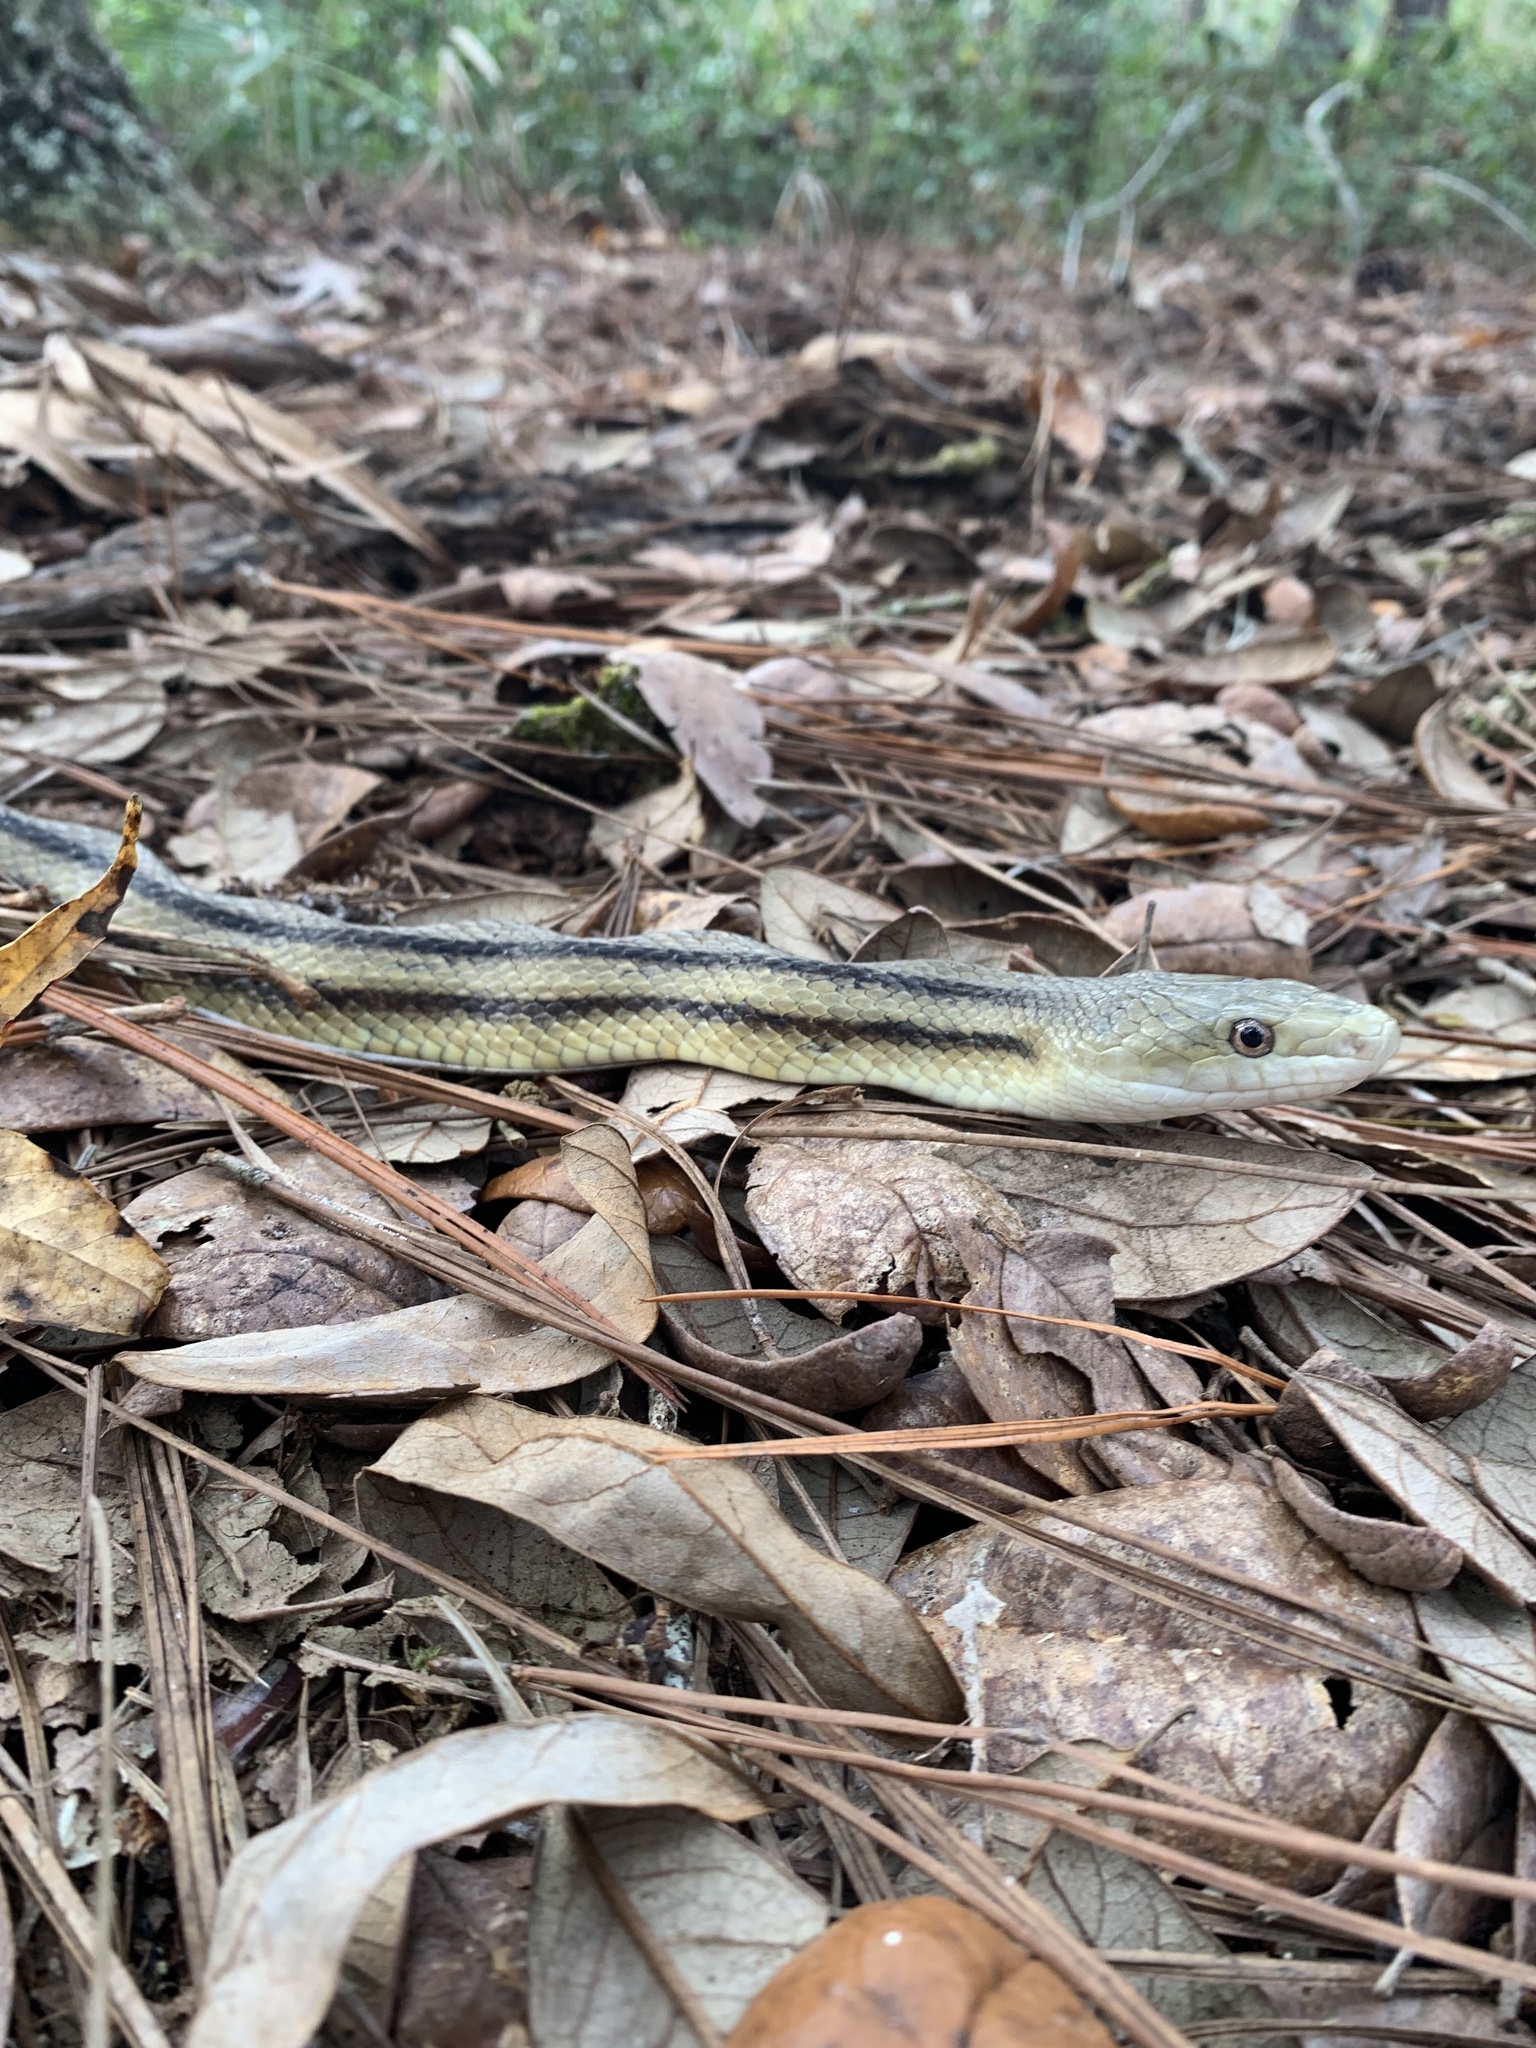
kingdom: Animalia
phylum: Chordata
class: Squamata
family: Colubridae
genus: Pantherophis
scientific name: Pantherophis alleghaniensis
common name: Eastern rat snake
